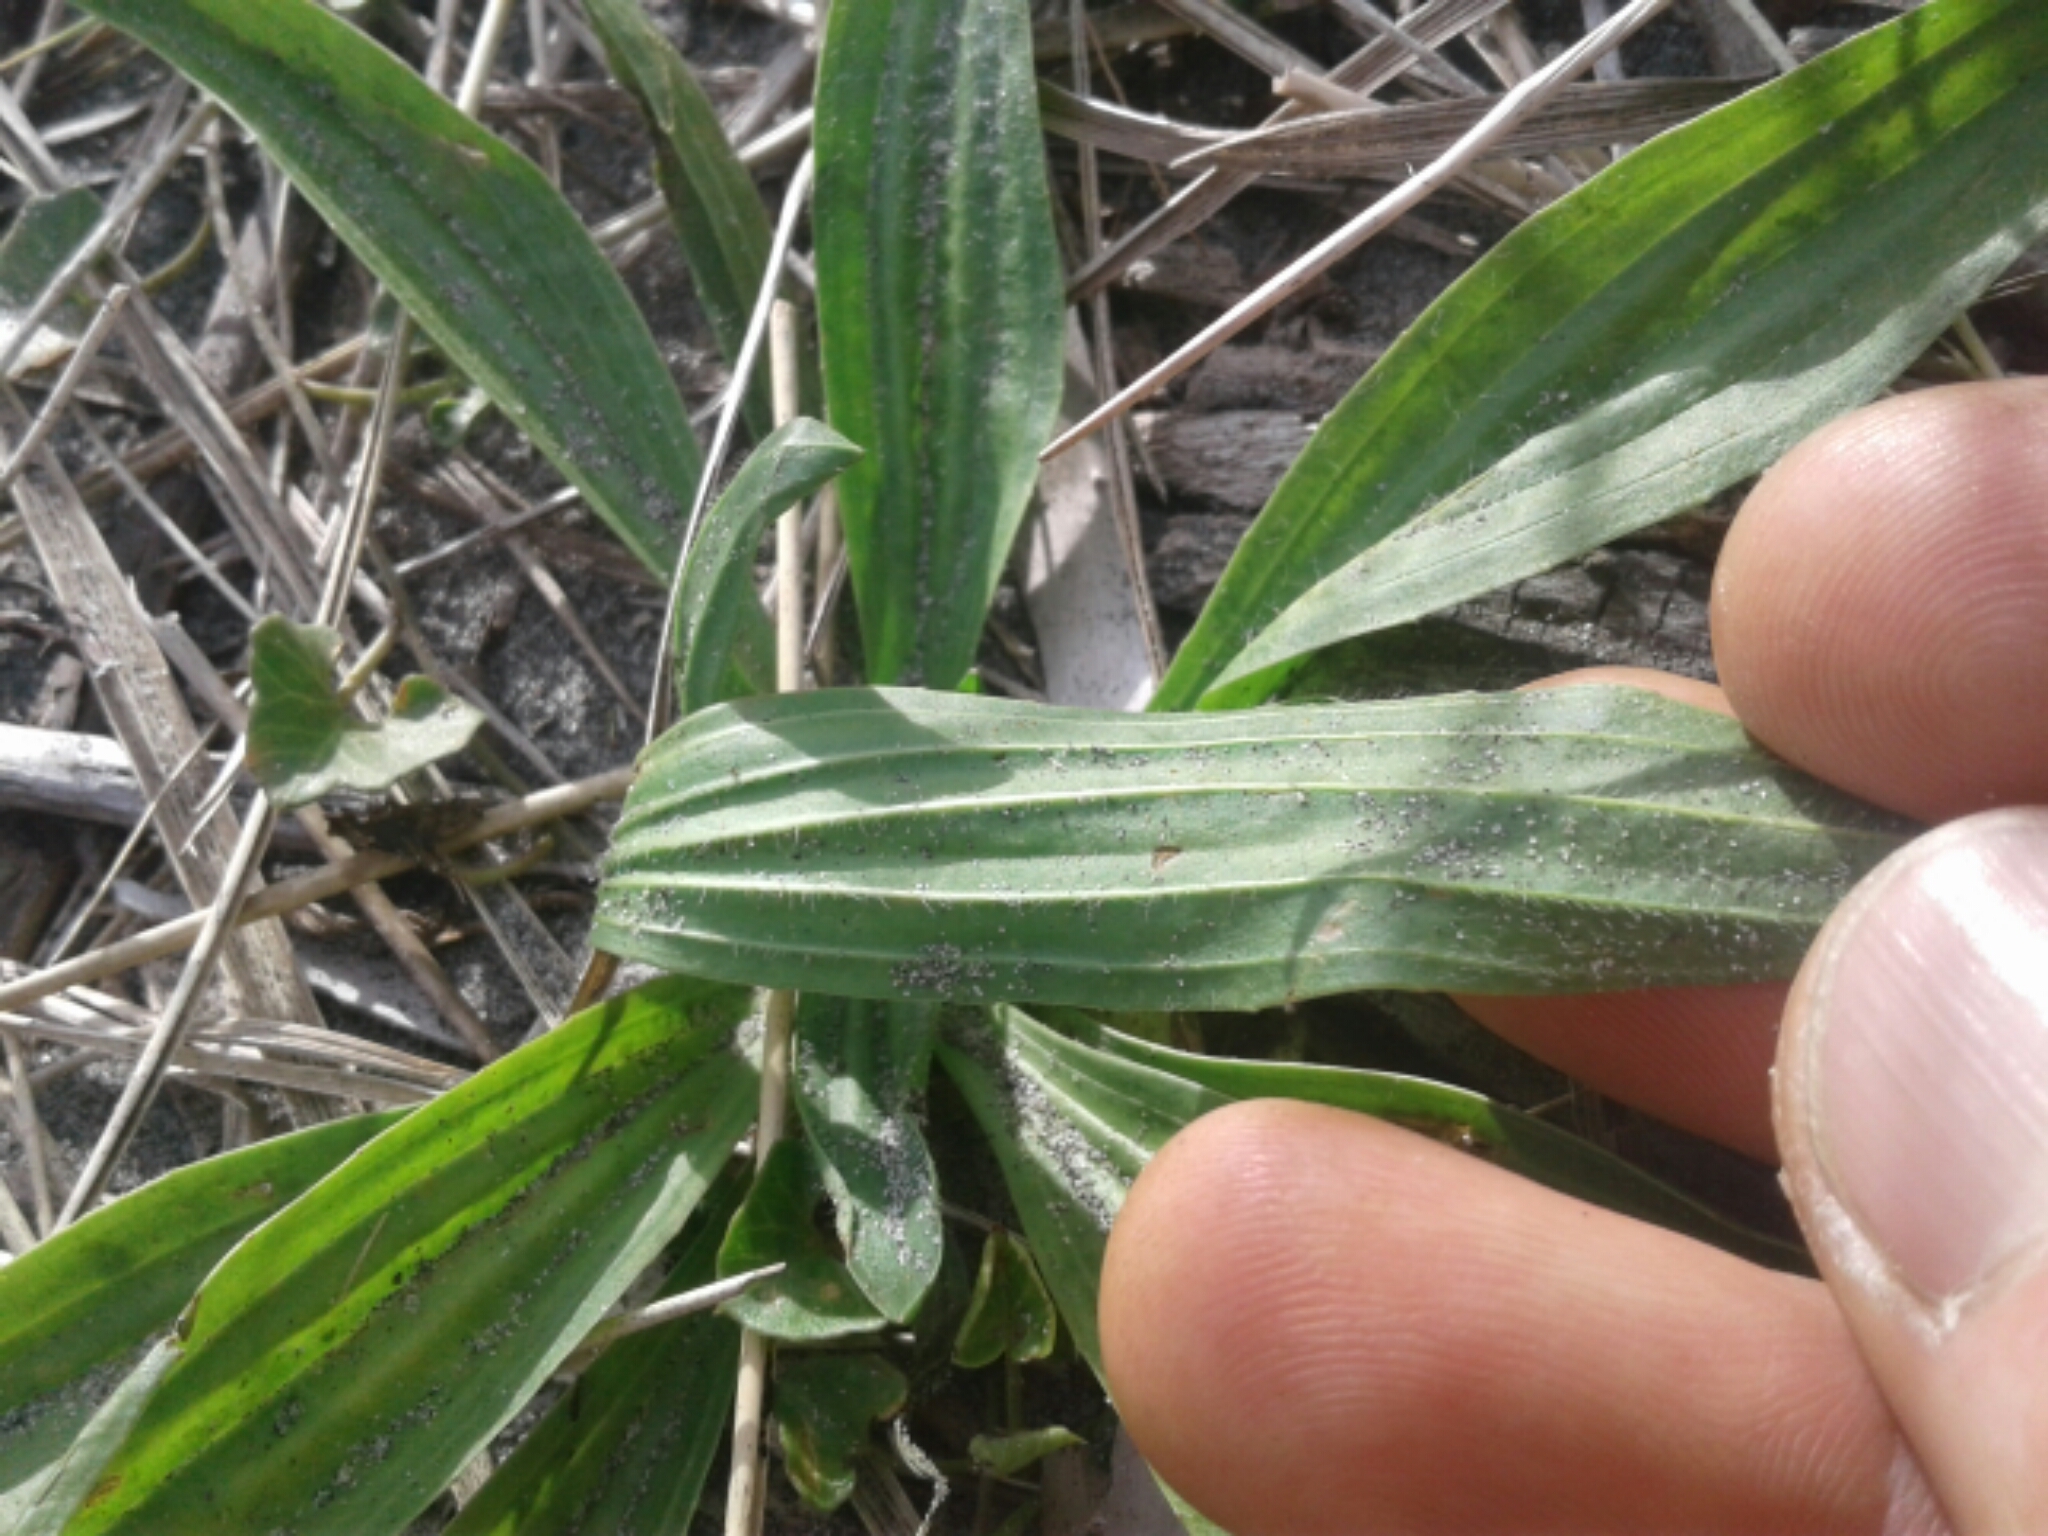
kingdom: Plantae
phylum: Tracheophyta
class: Magnoliopsida
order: Lamiales
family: Plantaginaceae
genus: Plantago
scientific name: Plantago lanceolata
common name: Ribwort plantain
